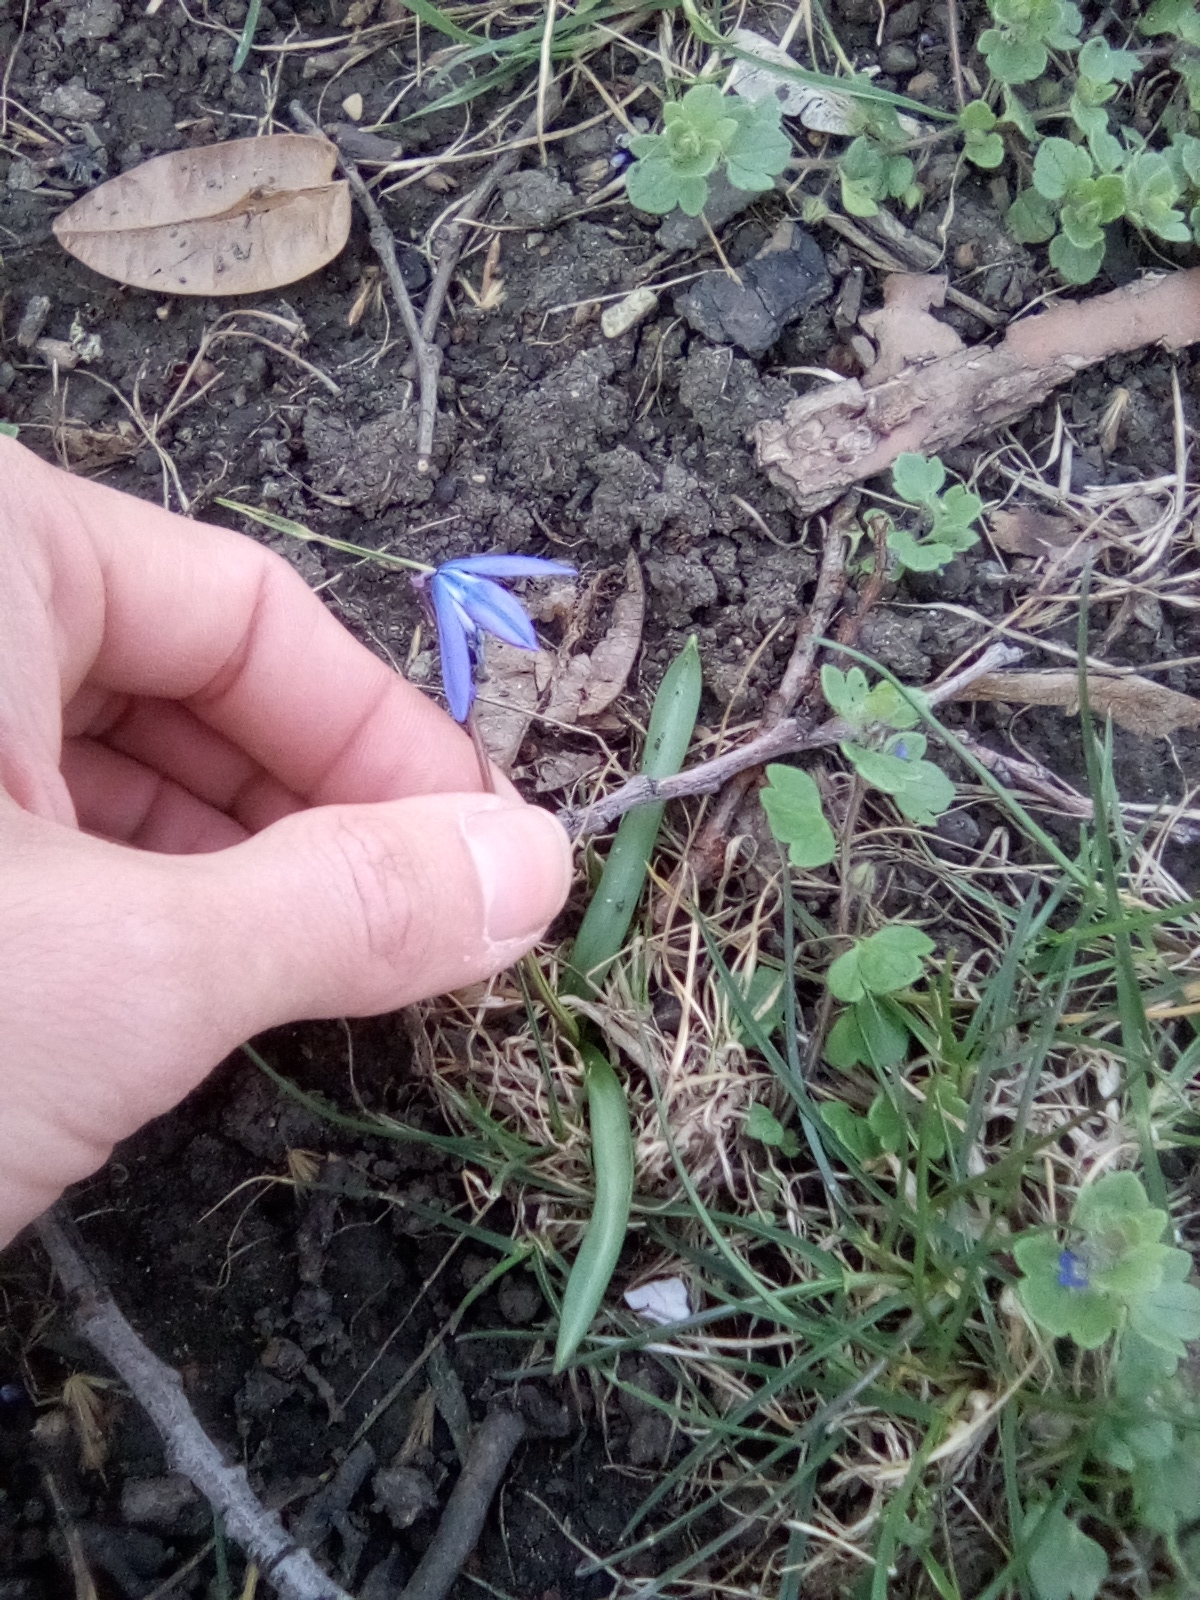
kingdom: Plantae
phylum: Tracheophyta
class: Liliopsida
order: Asparagales
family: Asparagaceae
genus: Scilla
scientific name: Scilla siberica
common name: Siberian squill
